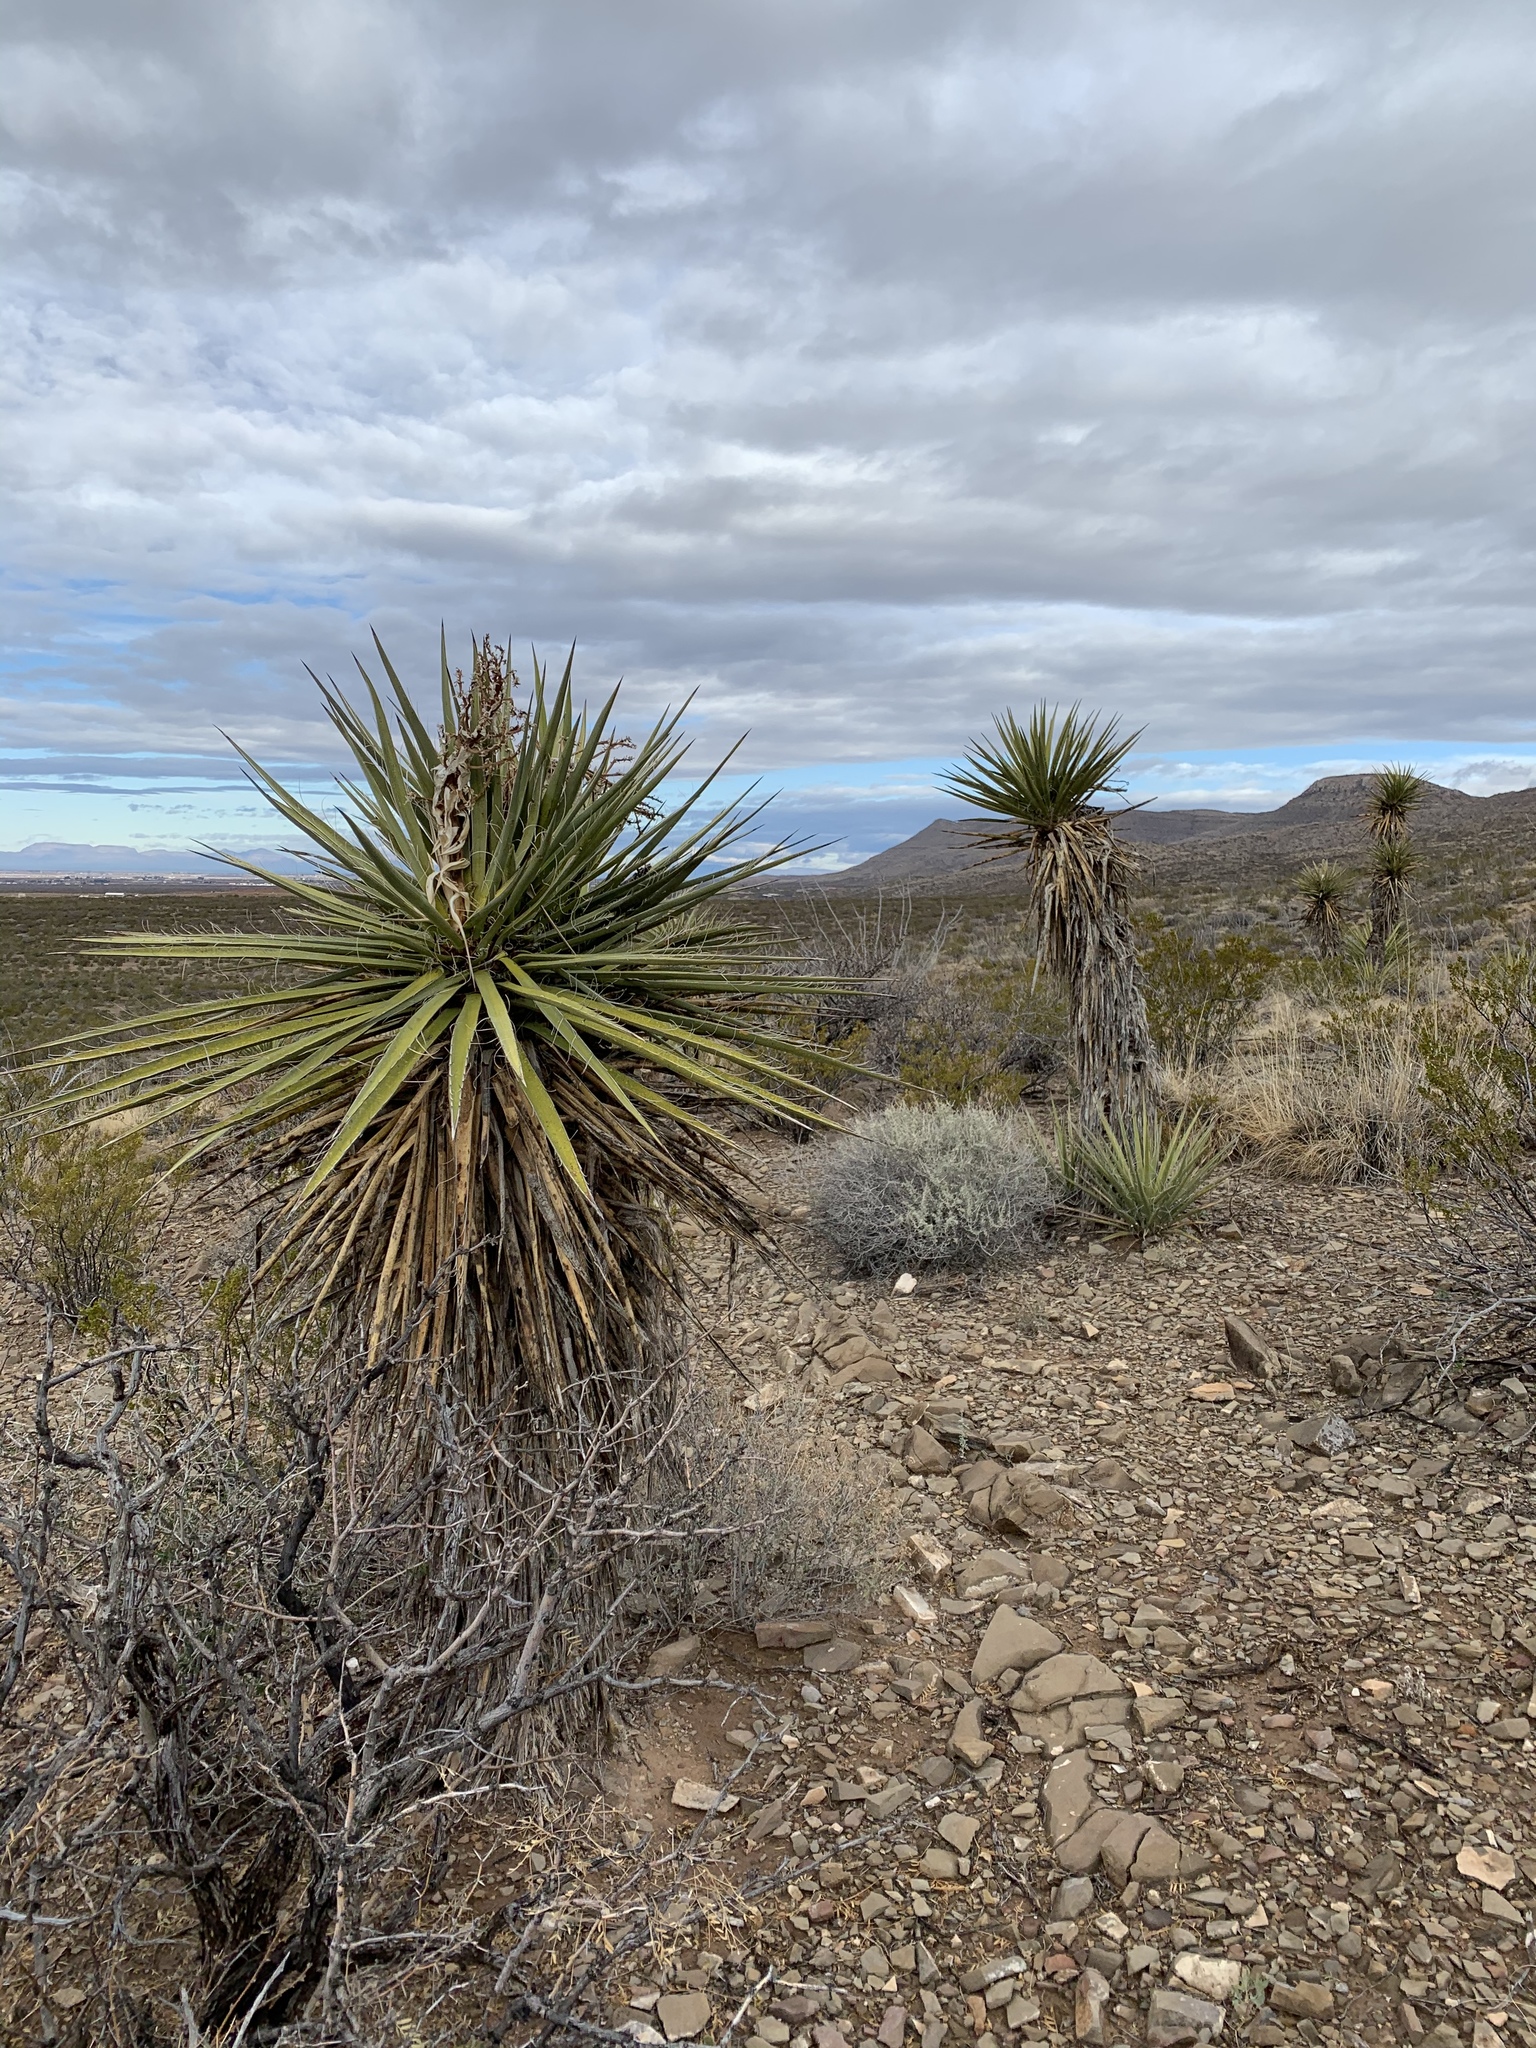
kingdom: Plantae
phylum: Tracheophyta
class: Liliopsida
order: Asparagales
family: Asparagaceae
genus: Yucca
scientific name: Yucca treculiana
